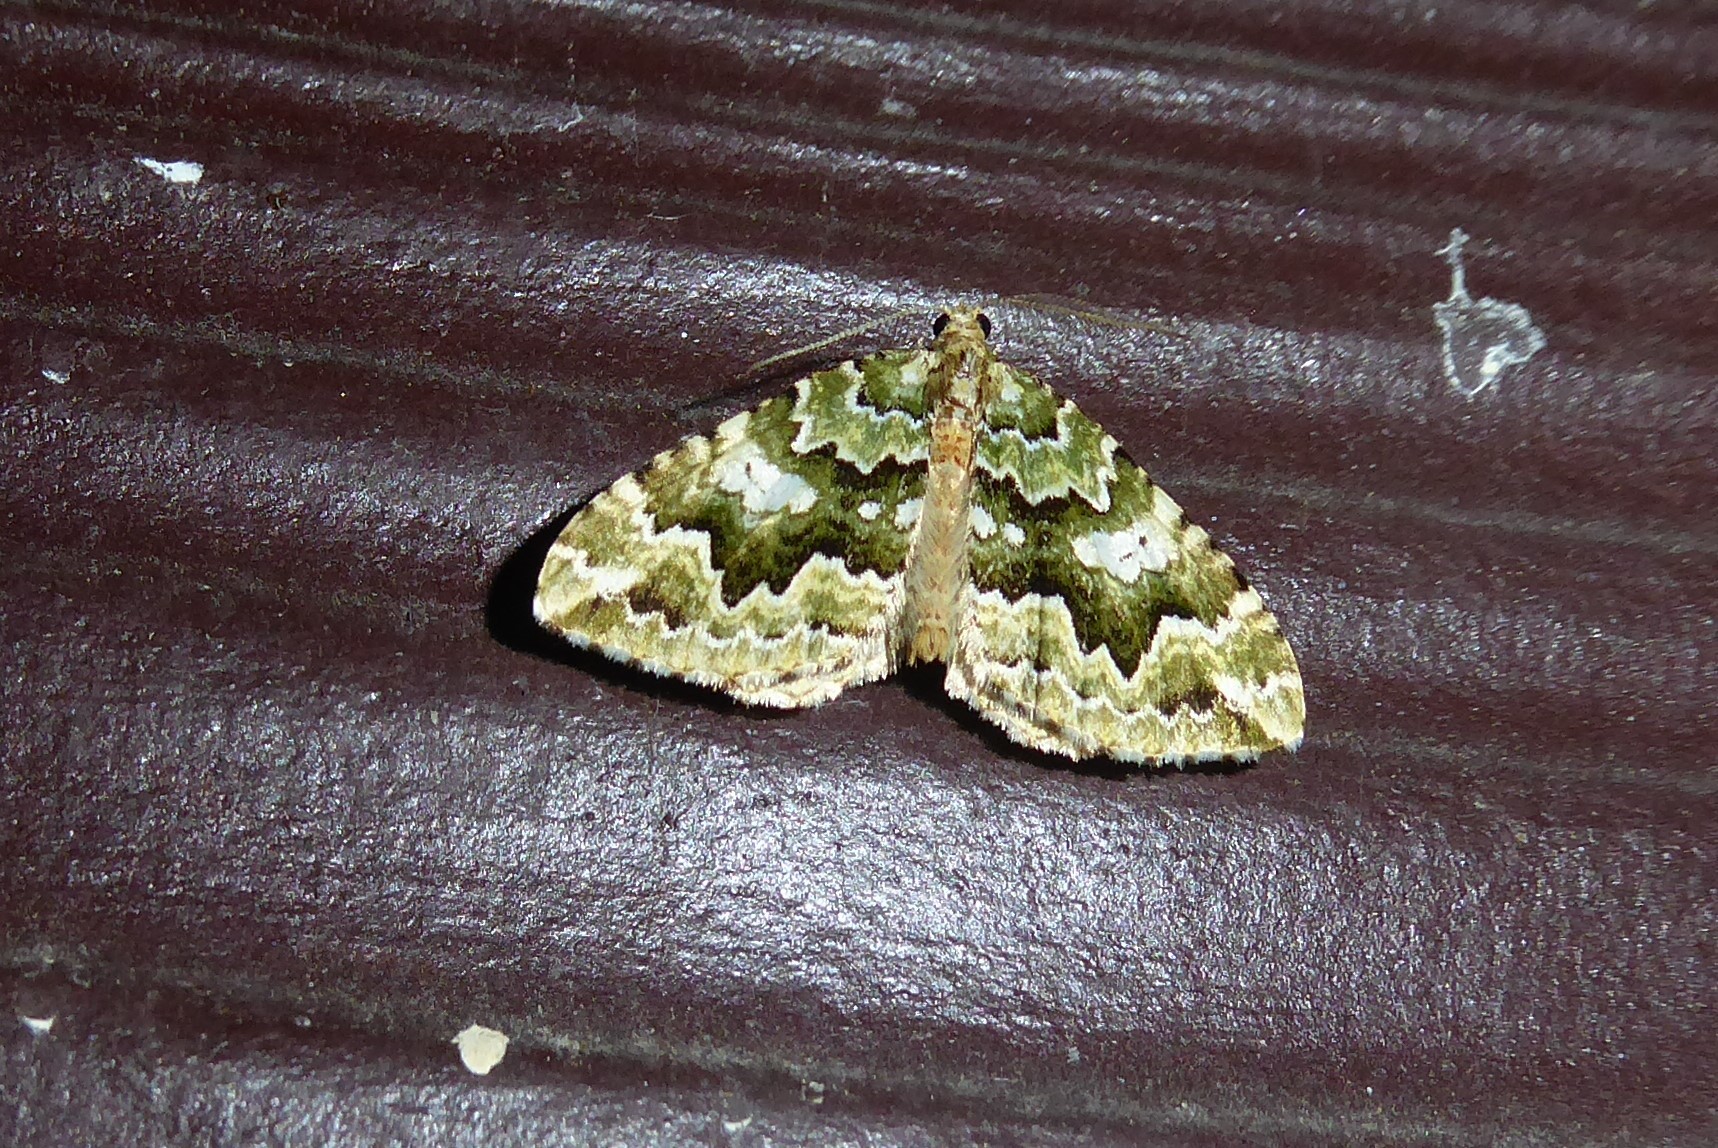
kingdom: Animalia
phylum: Arthropoda
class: Insecta
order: Lepidoptera
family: Geometridae
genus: Asaphodes
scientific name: Asaphodes beata
